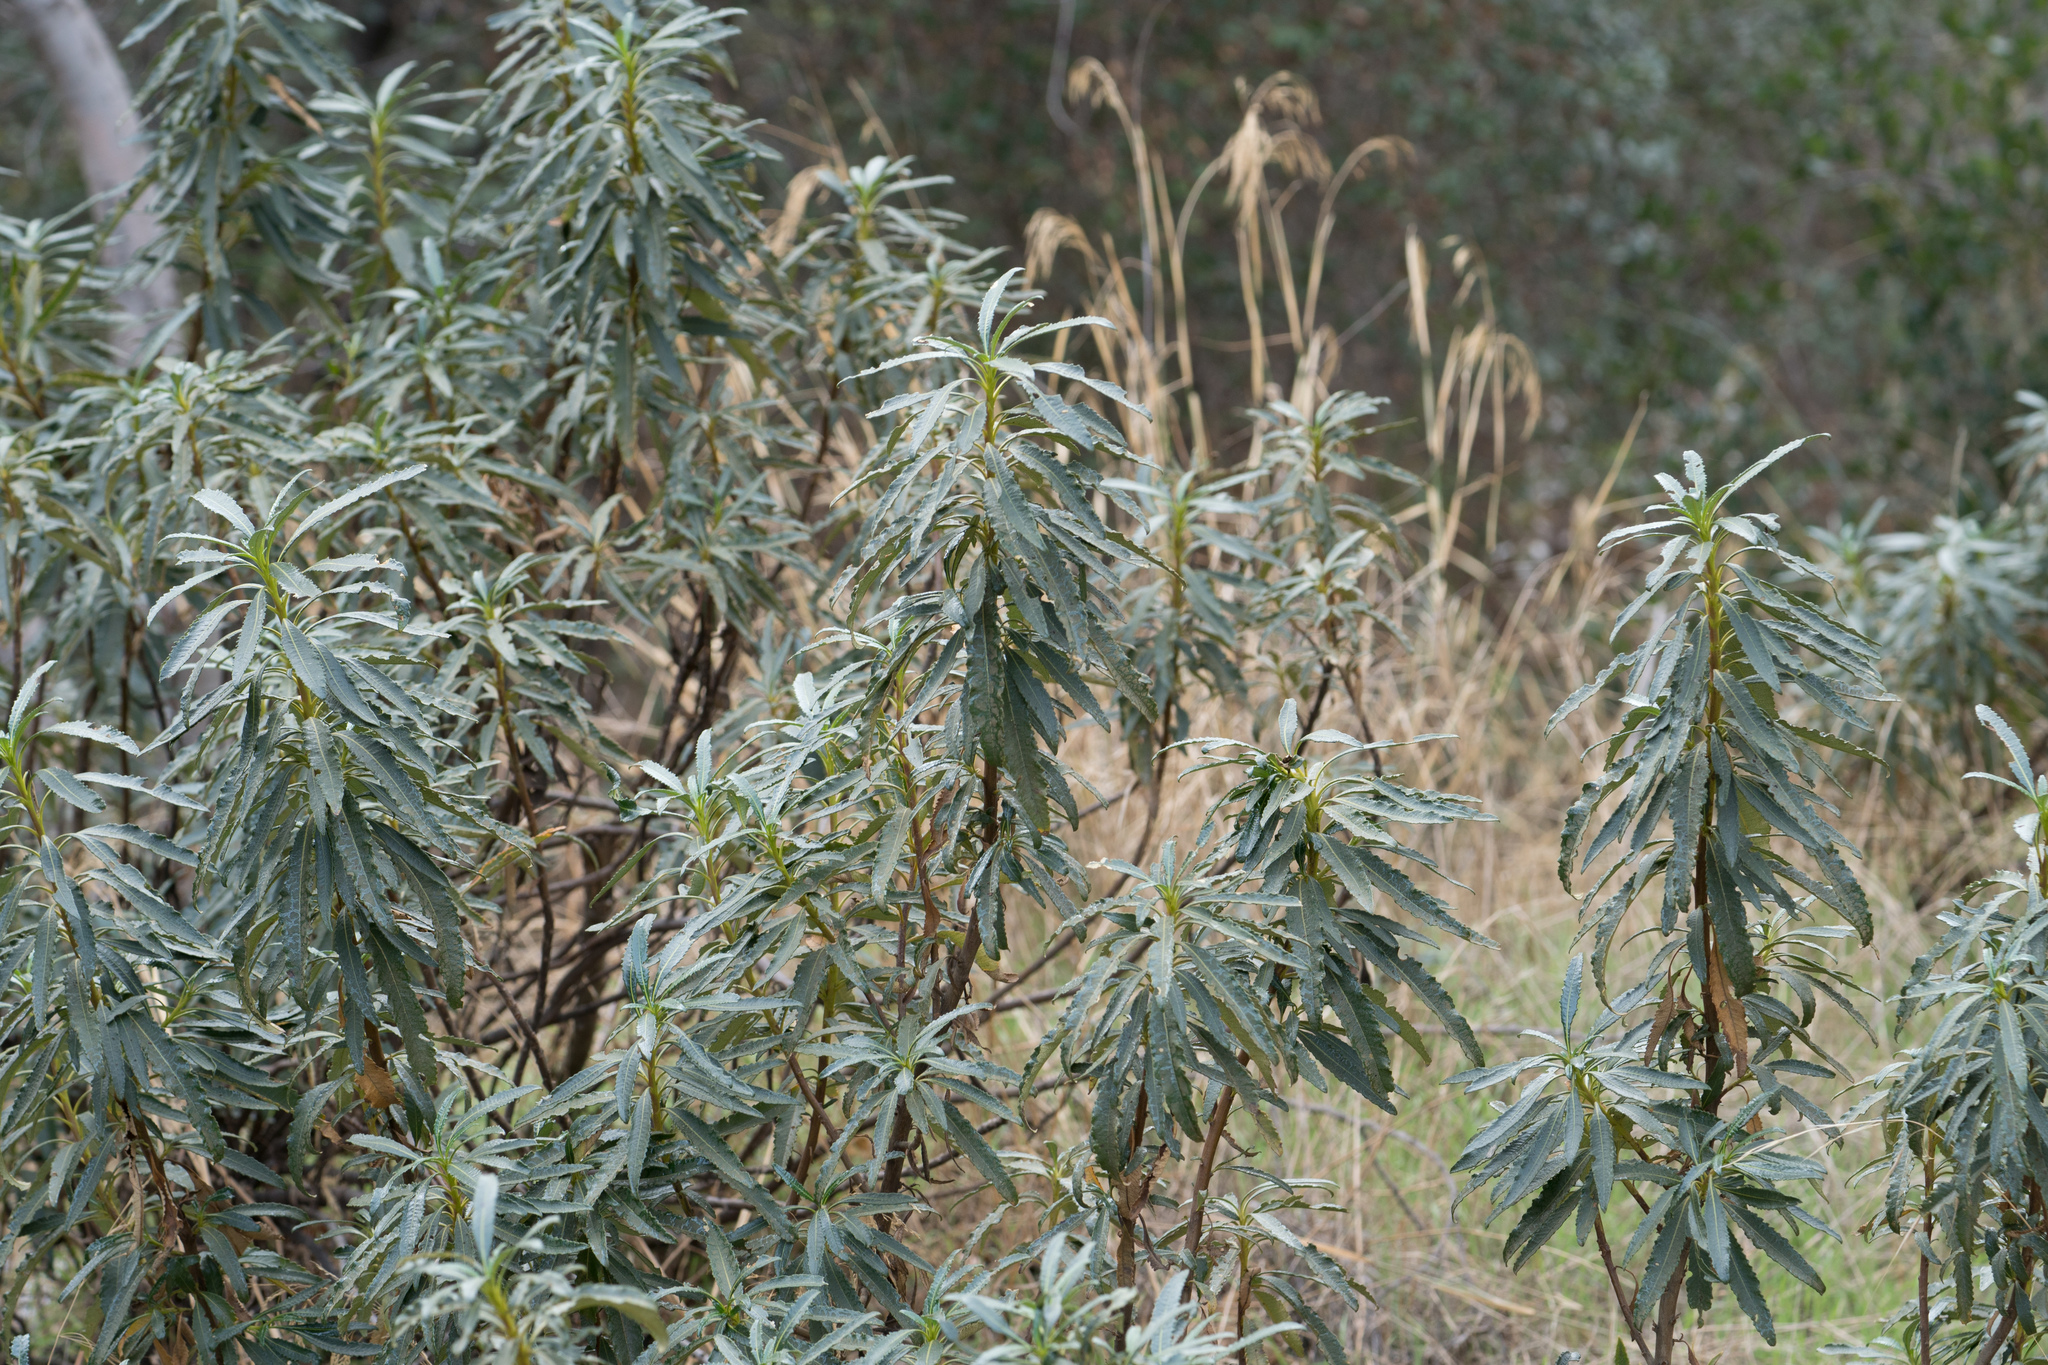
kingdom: Plantae
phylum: Tracheophyta
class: Magnoliopsida
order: Boraginales
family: Namaceae
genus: Eriodictyon
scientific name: Eriodictyon trichocalyx
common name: Hairy yerba-santa
